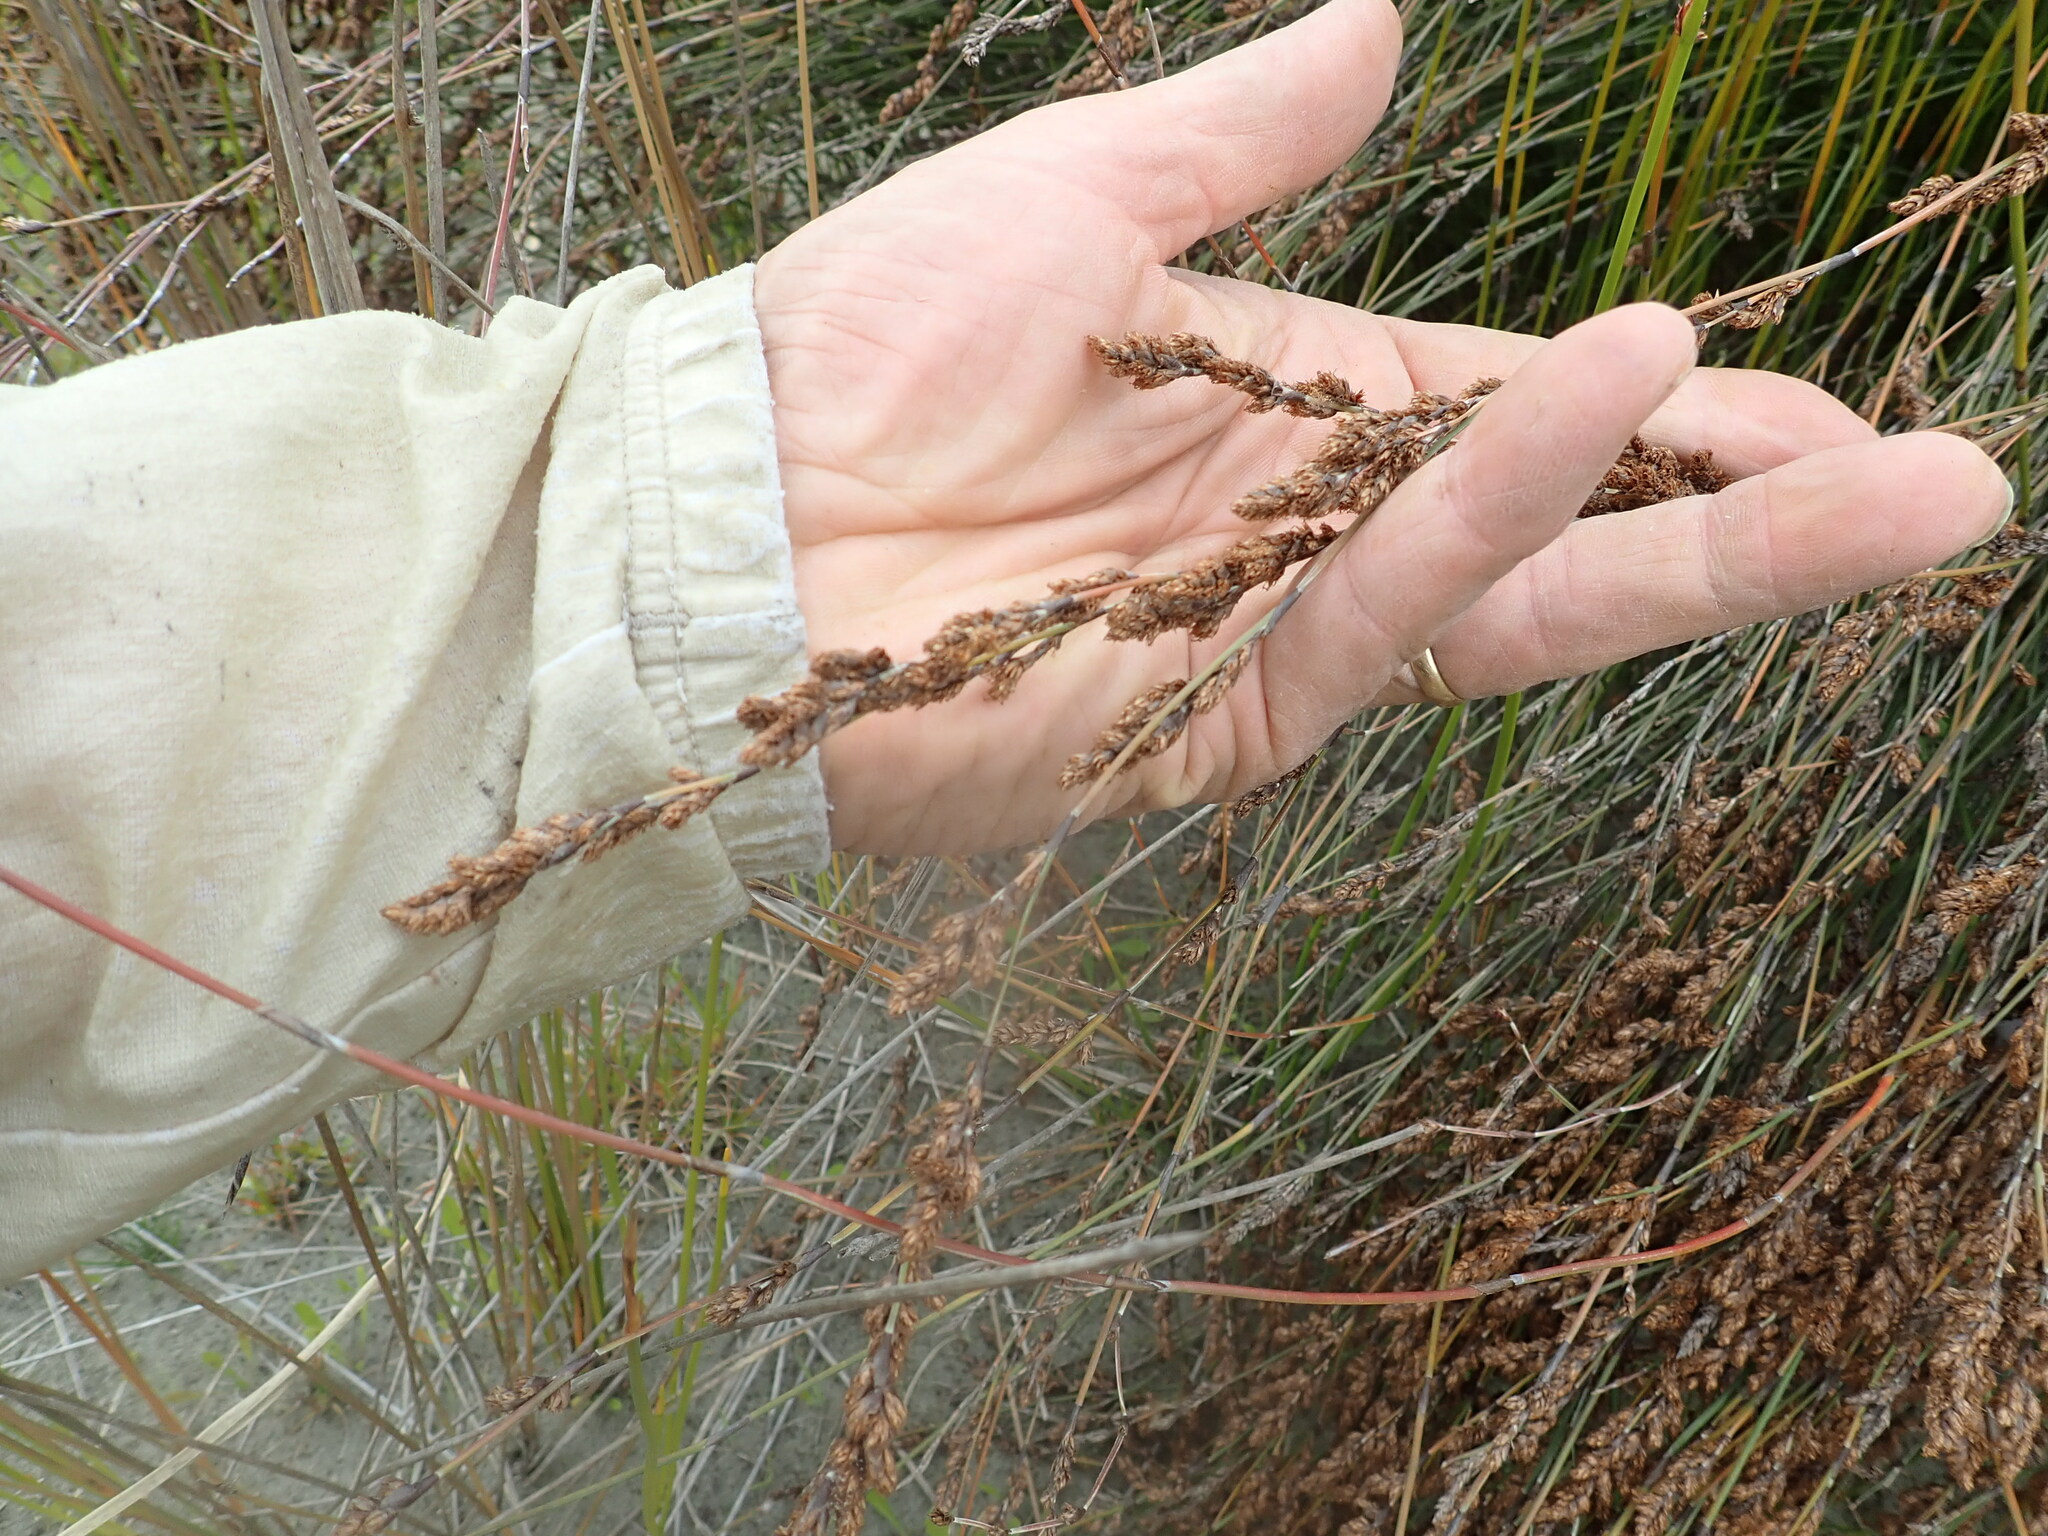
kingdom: Plantae
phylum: Tracheophyta
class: Liliopsida
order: Poales
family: Restionaceae
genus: Apodasmia
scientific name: Apodasmia similis
